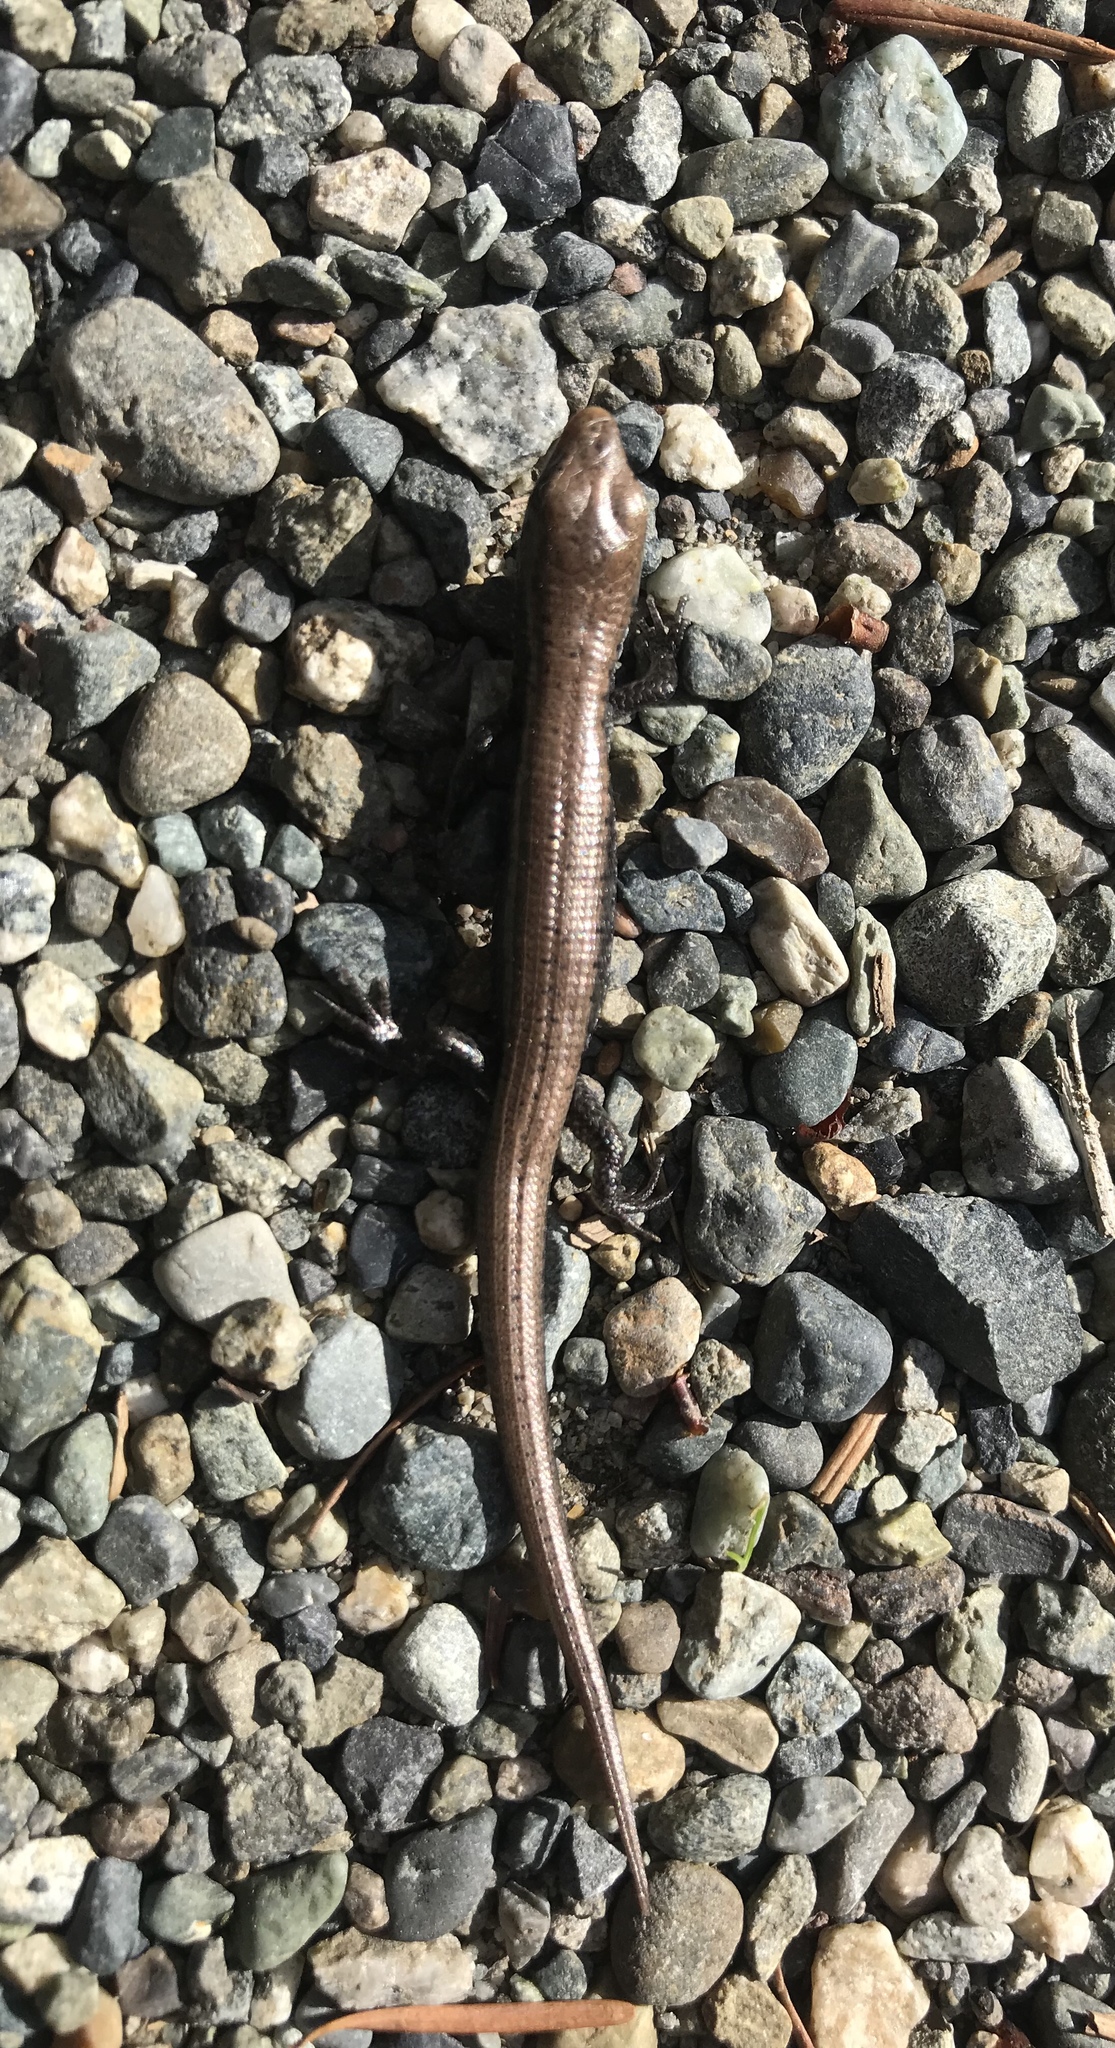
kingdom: Animalia
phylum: Chordata
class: Squamata
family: Anguidae
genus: Elgaria
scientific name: Elgaria coerulea
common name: Northern alligator lizard
